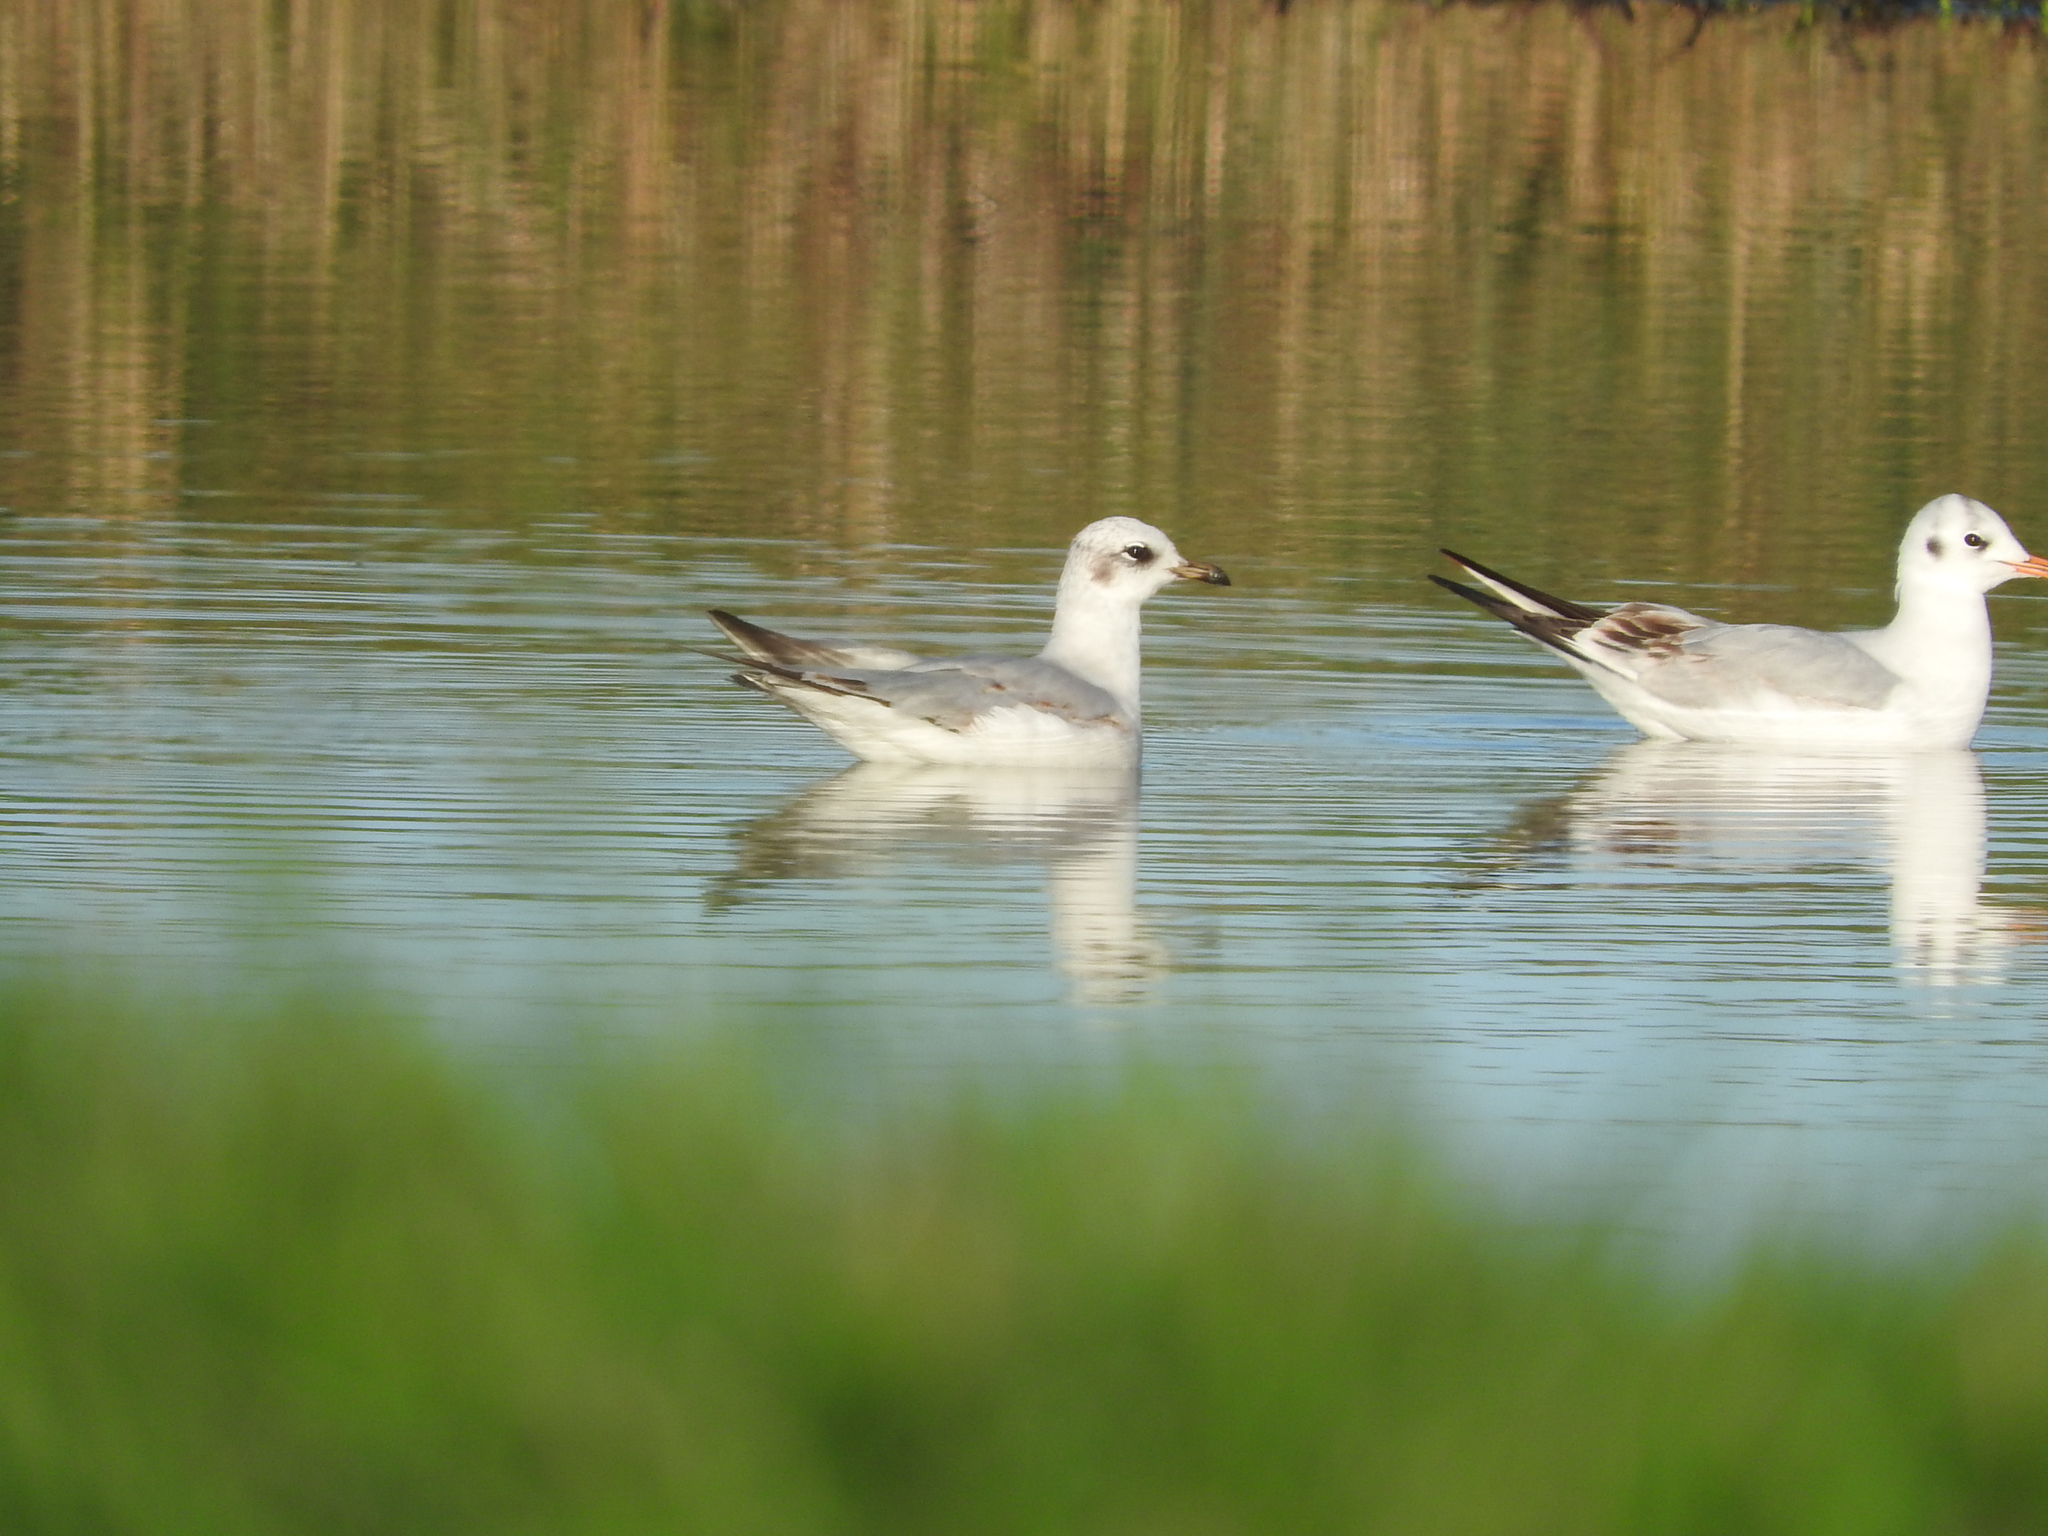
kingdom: Animalia
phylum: Chordata
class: Aves
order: Charadriiformes
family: Laridae
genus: Chroicocephalus
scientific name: Chroicocephalus ridibundus
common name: Black-headed gull
